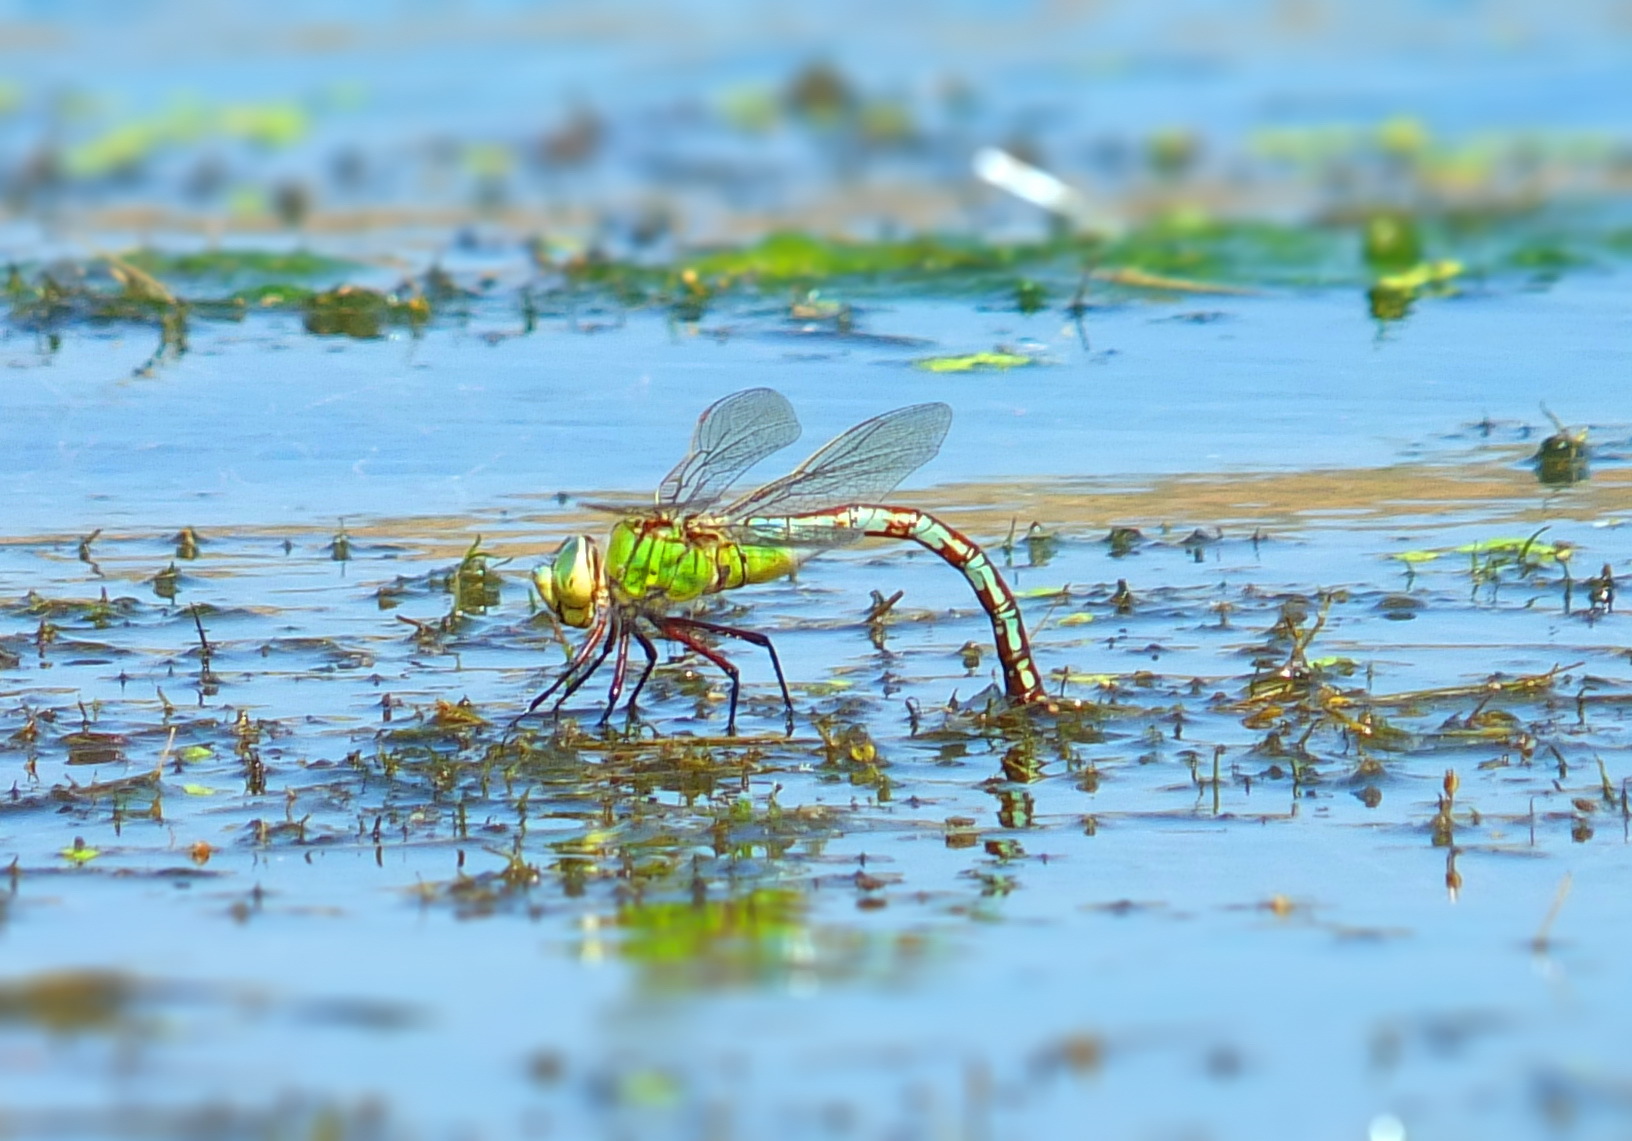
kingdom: Animalia
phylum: Arthropoda
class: Insecta
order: Odonata
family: Aeshnidae
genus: Anax
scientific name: Anax imperator
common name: Emperor dragonfly
